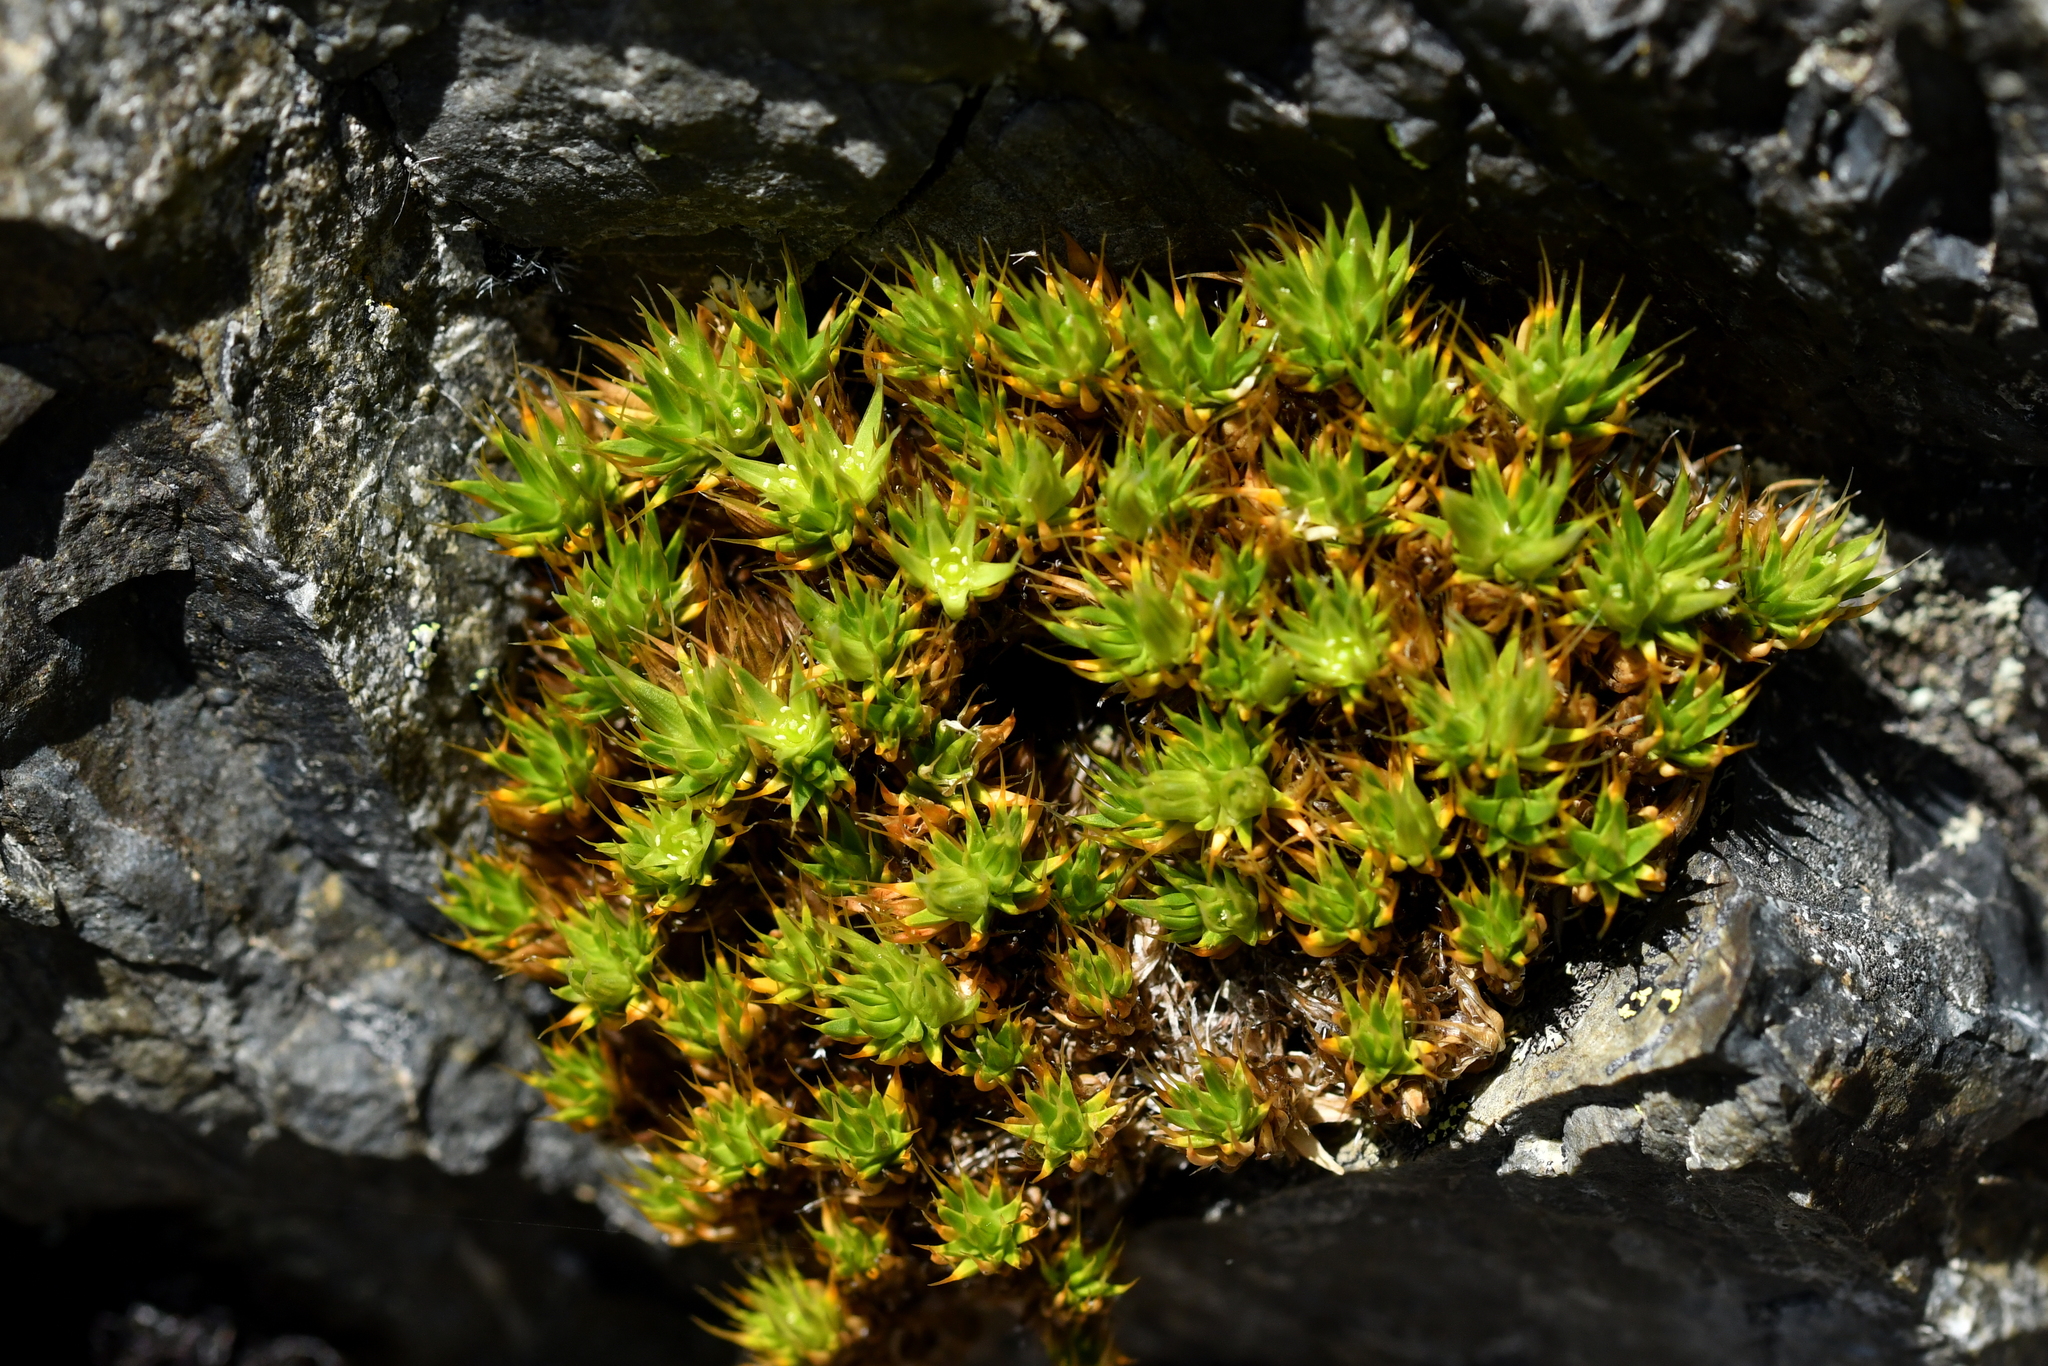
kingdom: Plantae
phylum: Tracheophyta
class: Magnoliopsida
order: Caryophyllales
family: Caryophyllaceae
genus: Colobanthus
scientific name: Colobanthus acicularis
